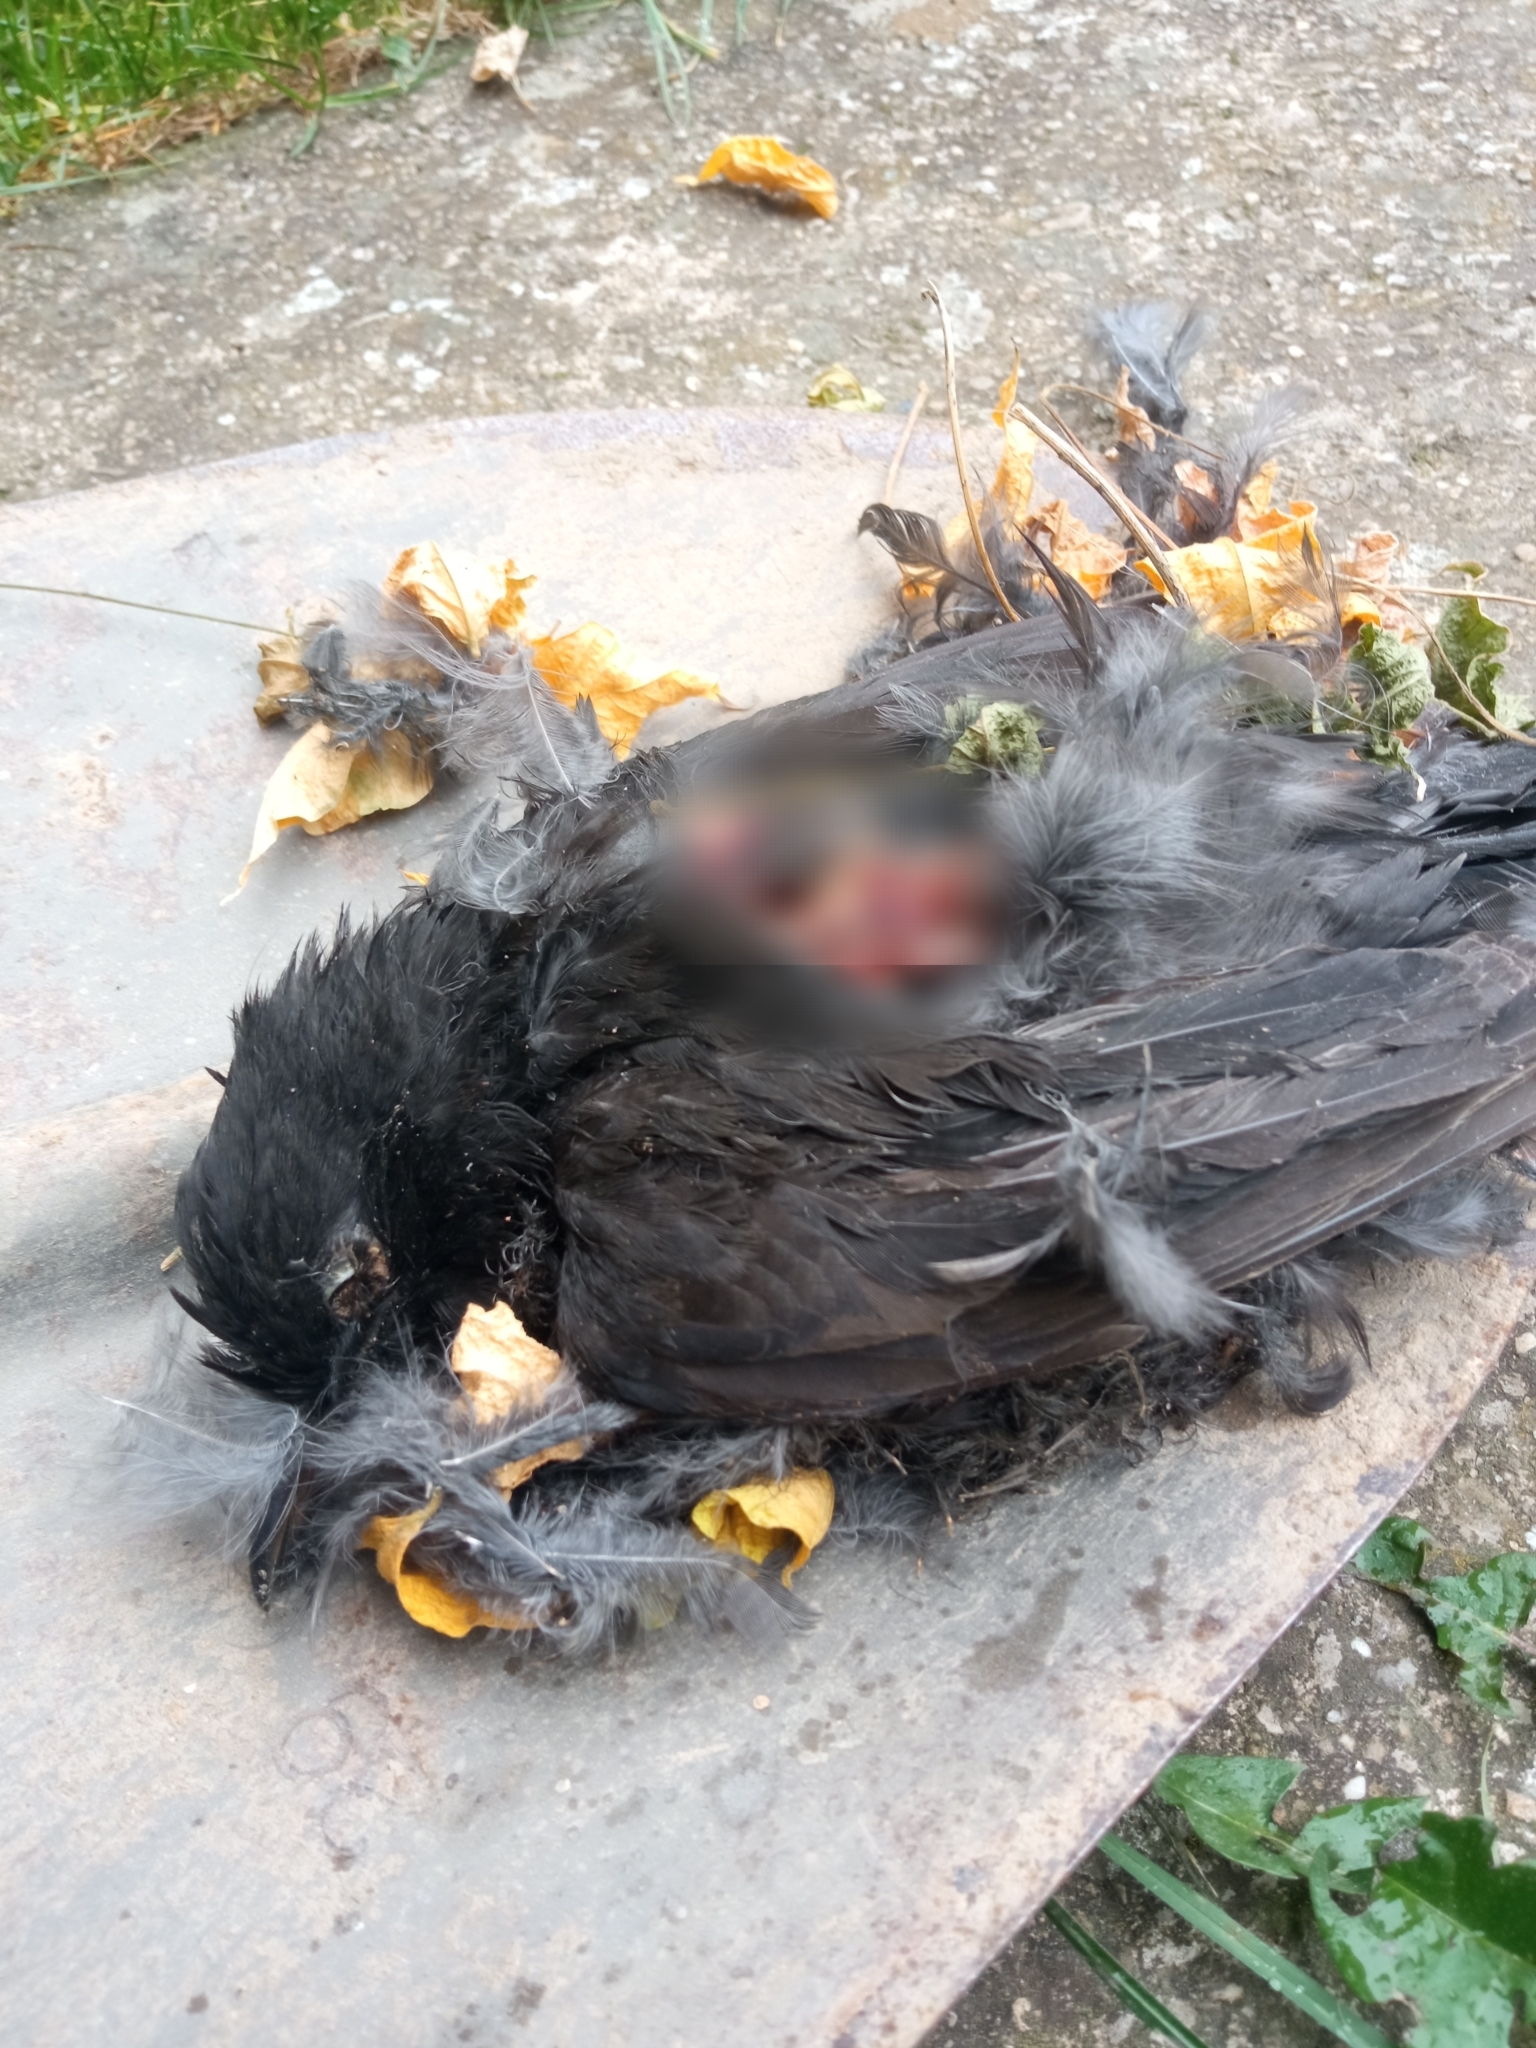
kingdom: Animalia
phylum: Chordata
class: Aves
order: Passeriformes
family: Turdidae
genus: Turdus
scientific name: Turdus merula
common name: Common blackbird
